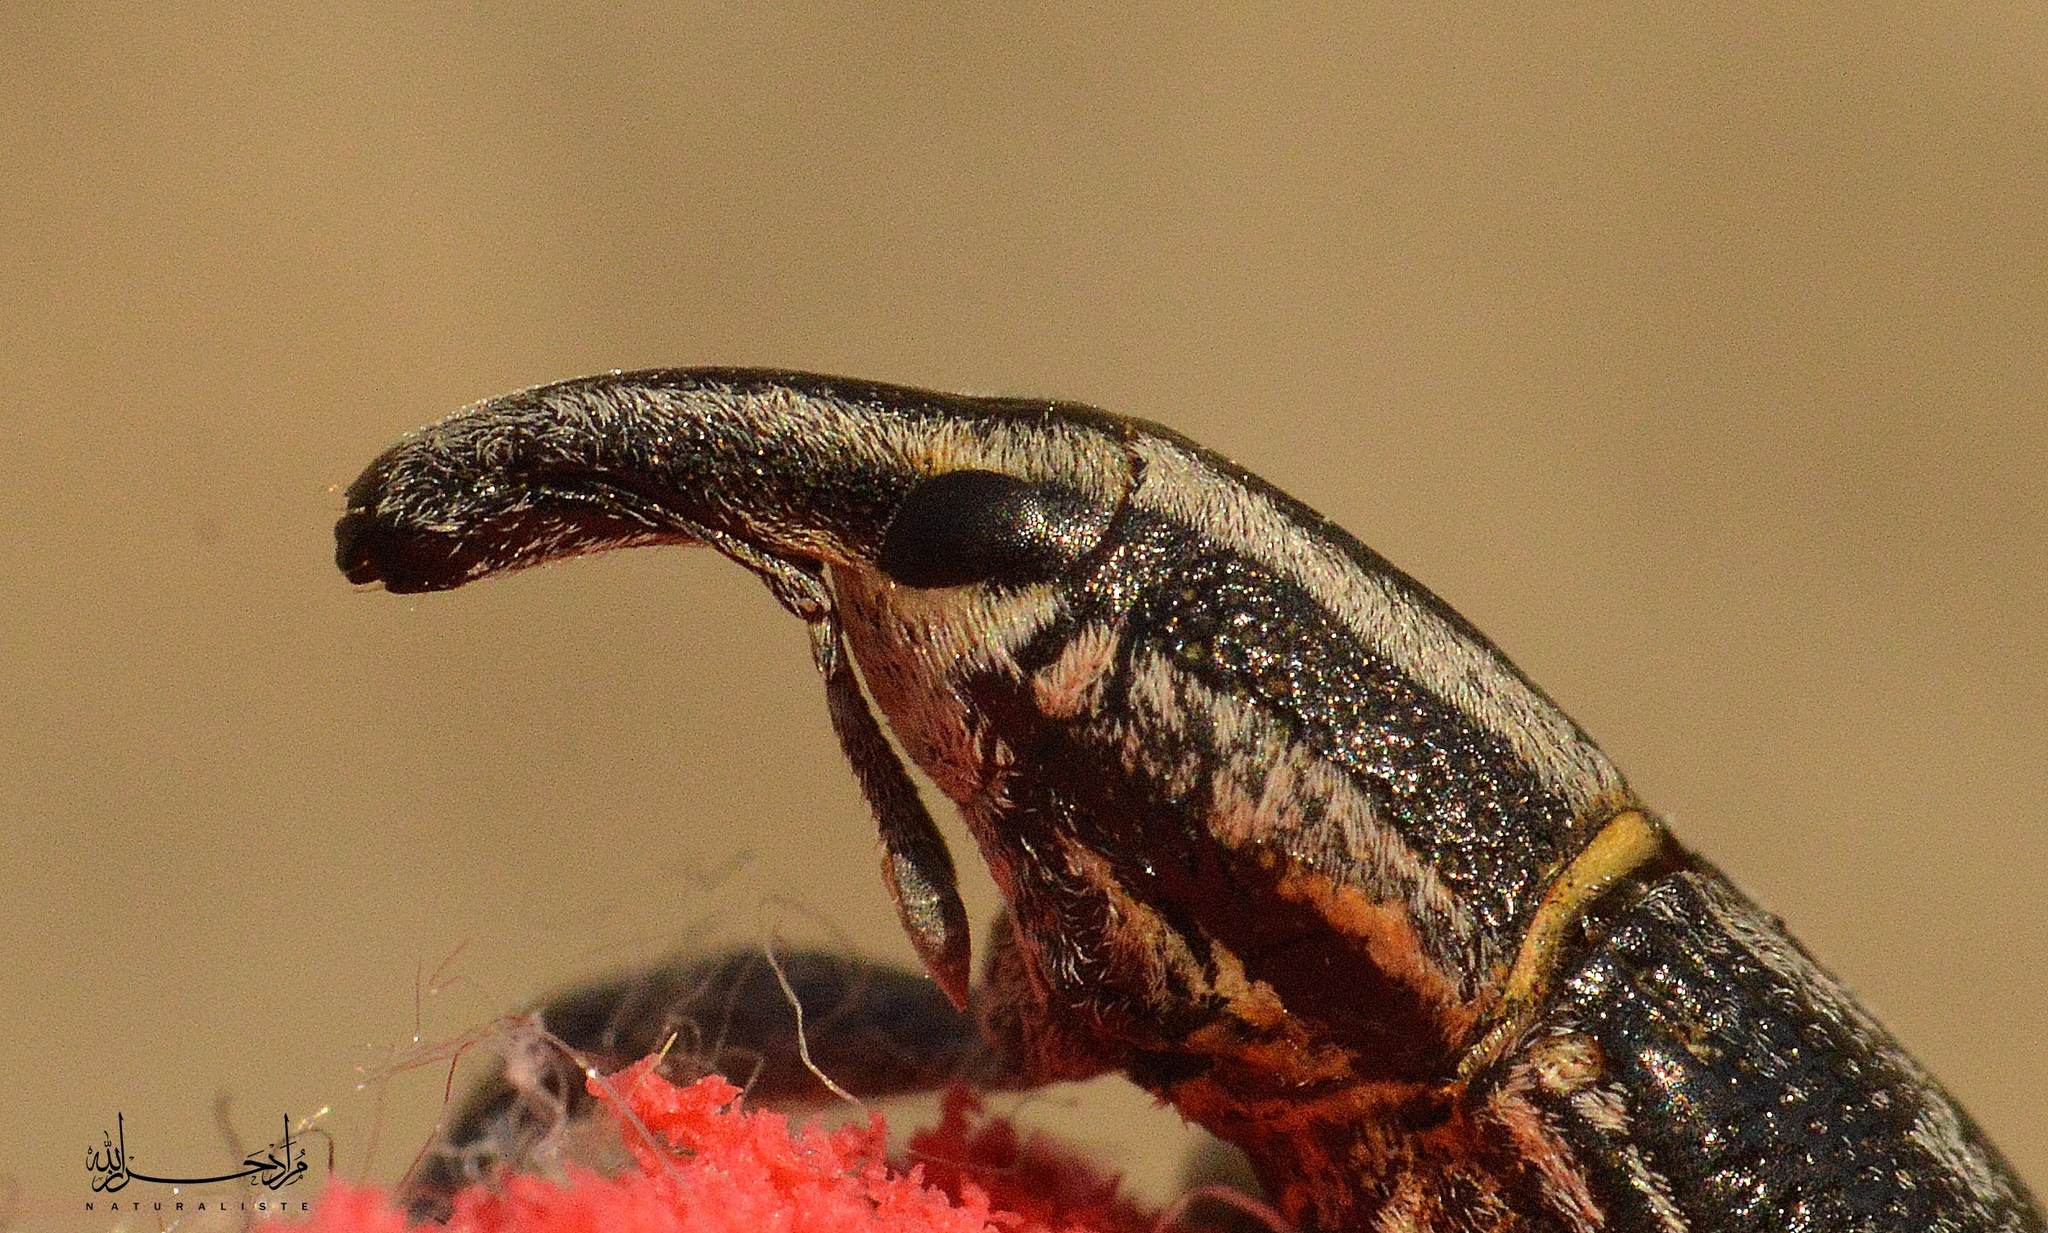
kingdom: Animalia
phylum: Arthropoda
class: Insecta
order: Coleoptera
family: Curculionidae
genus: Lixus
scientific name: Lixus anguinus
